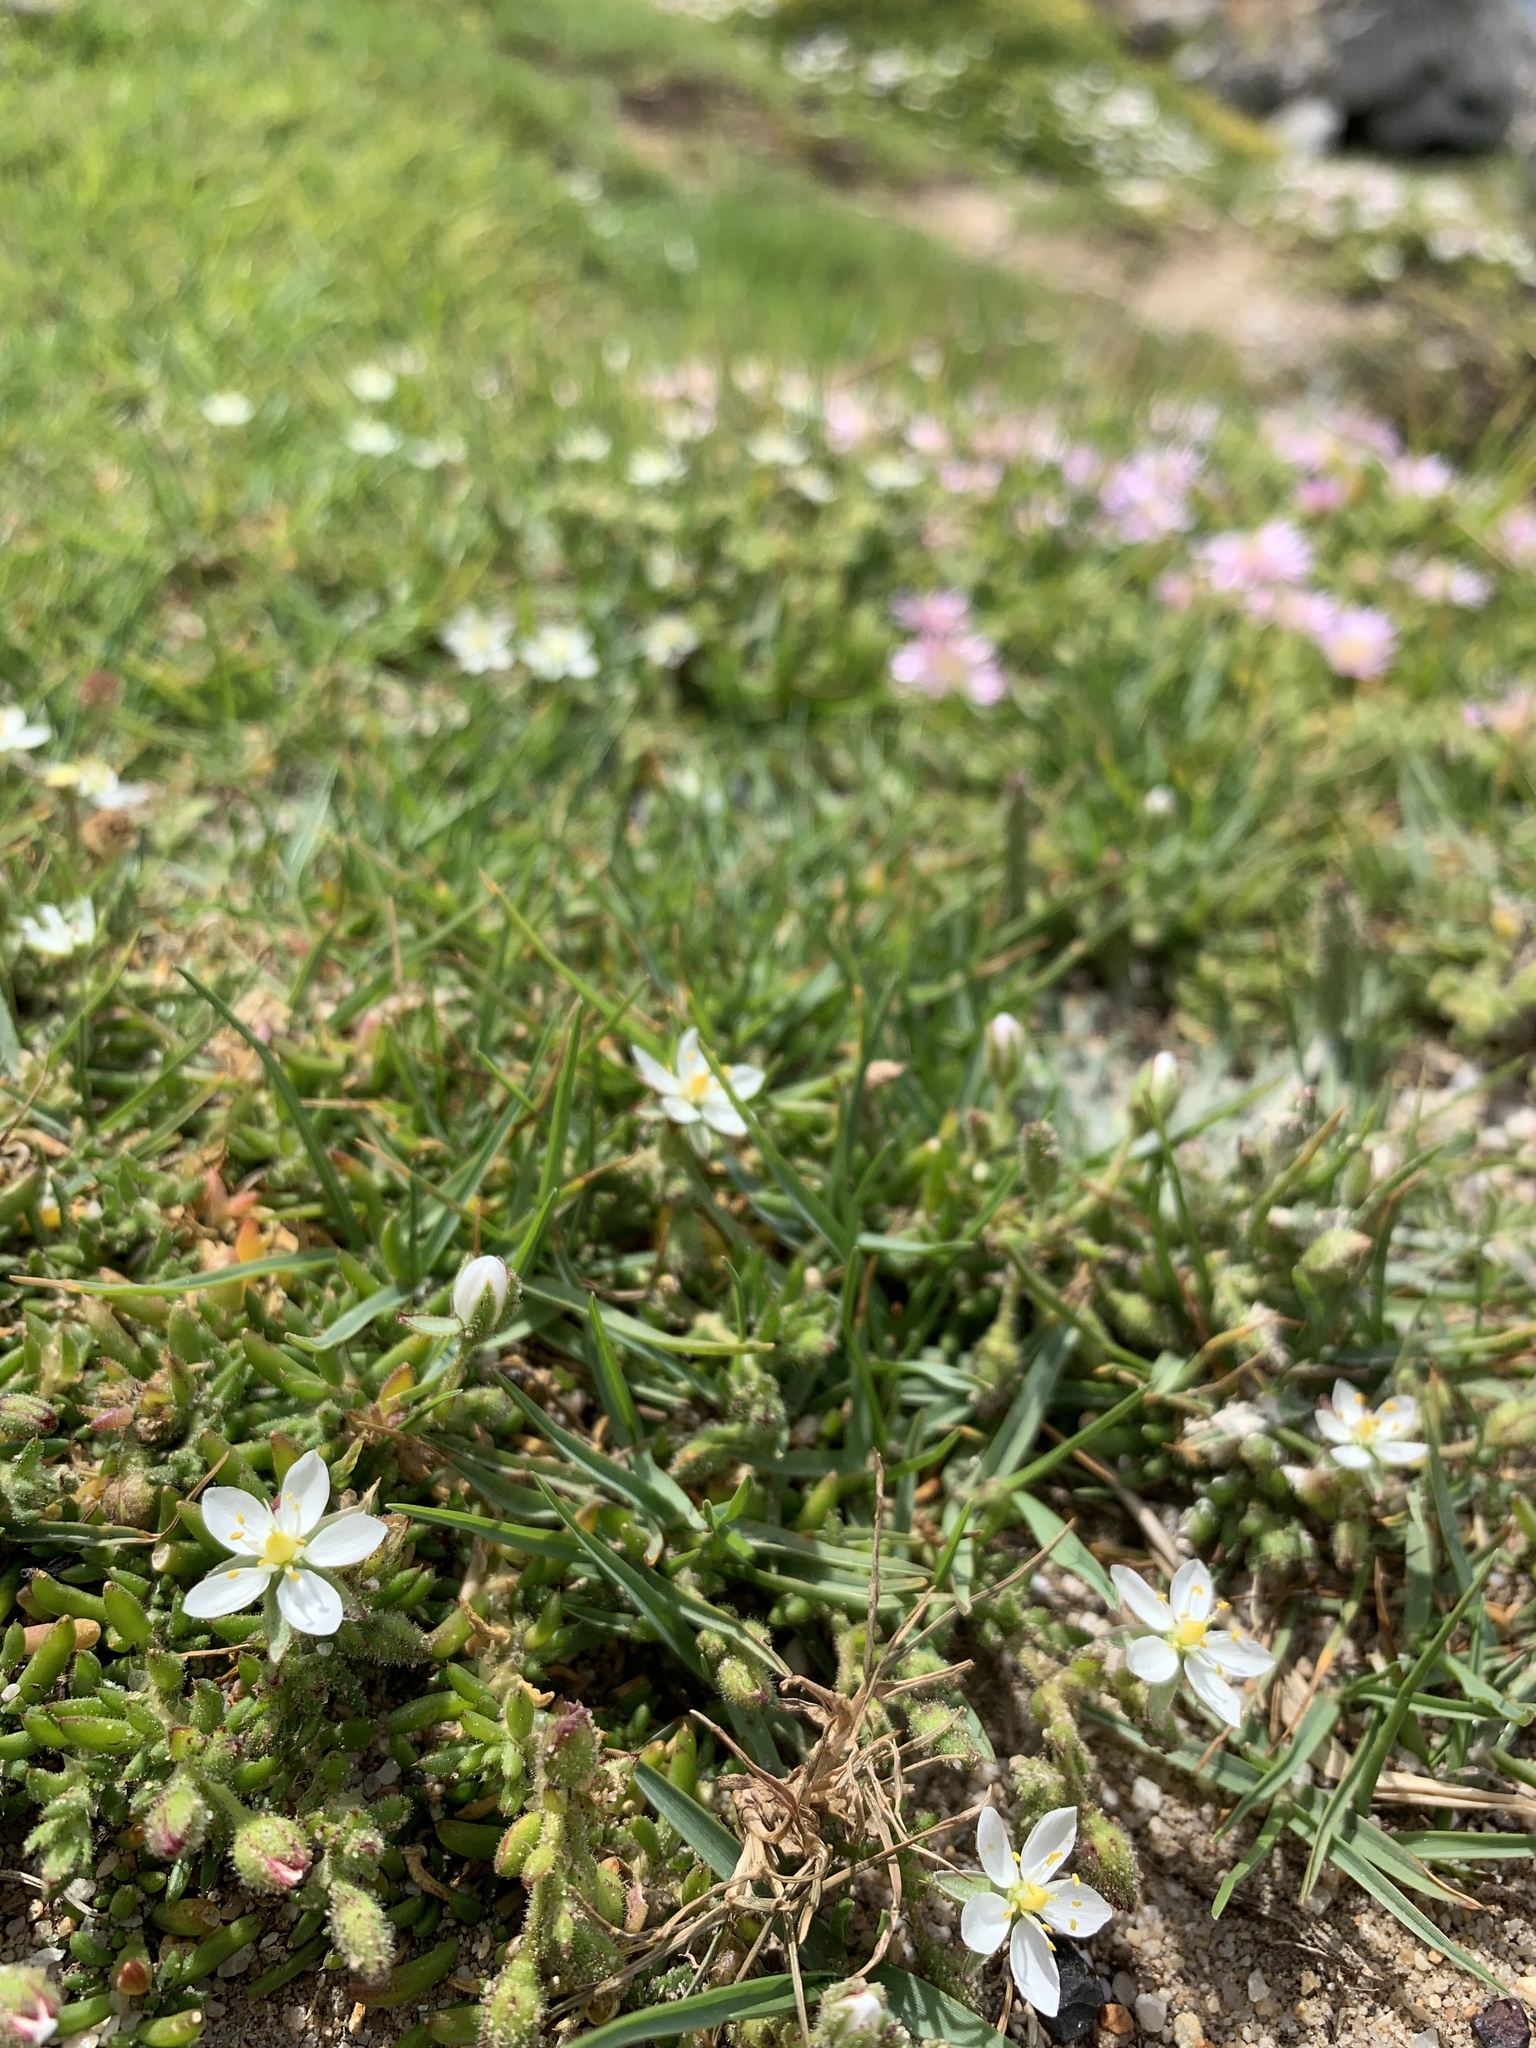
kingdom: Plantae
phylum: Tracheophyta
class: Magnoliopsida
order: Caryophyllales
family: Caryophyllaceae
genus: Spergularia
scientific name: Spergularia media
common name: Greater sea-spurrey
